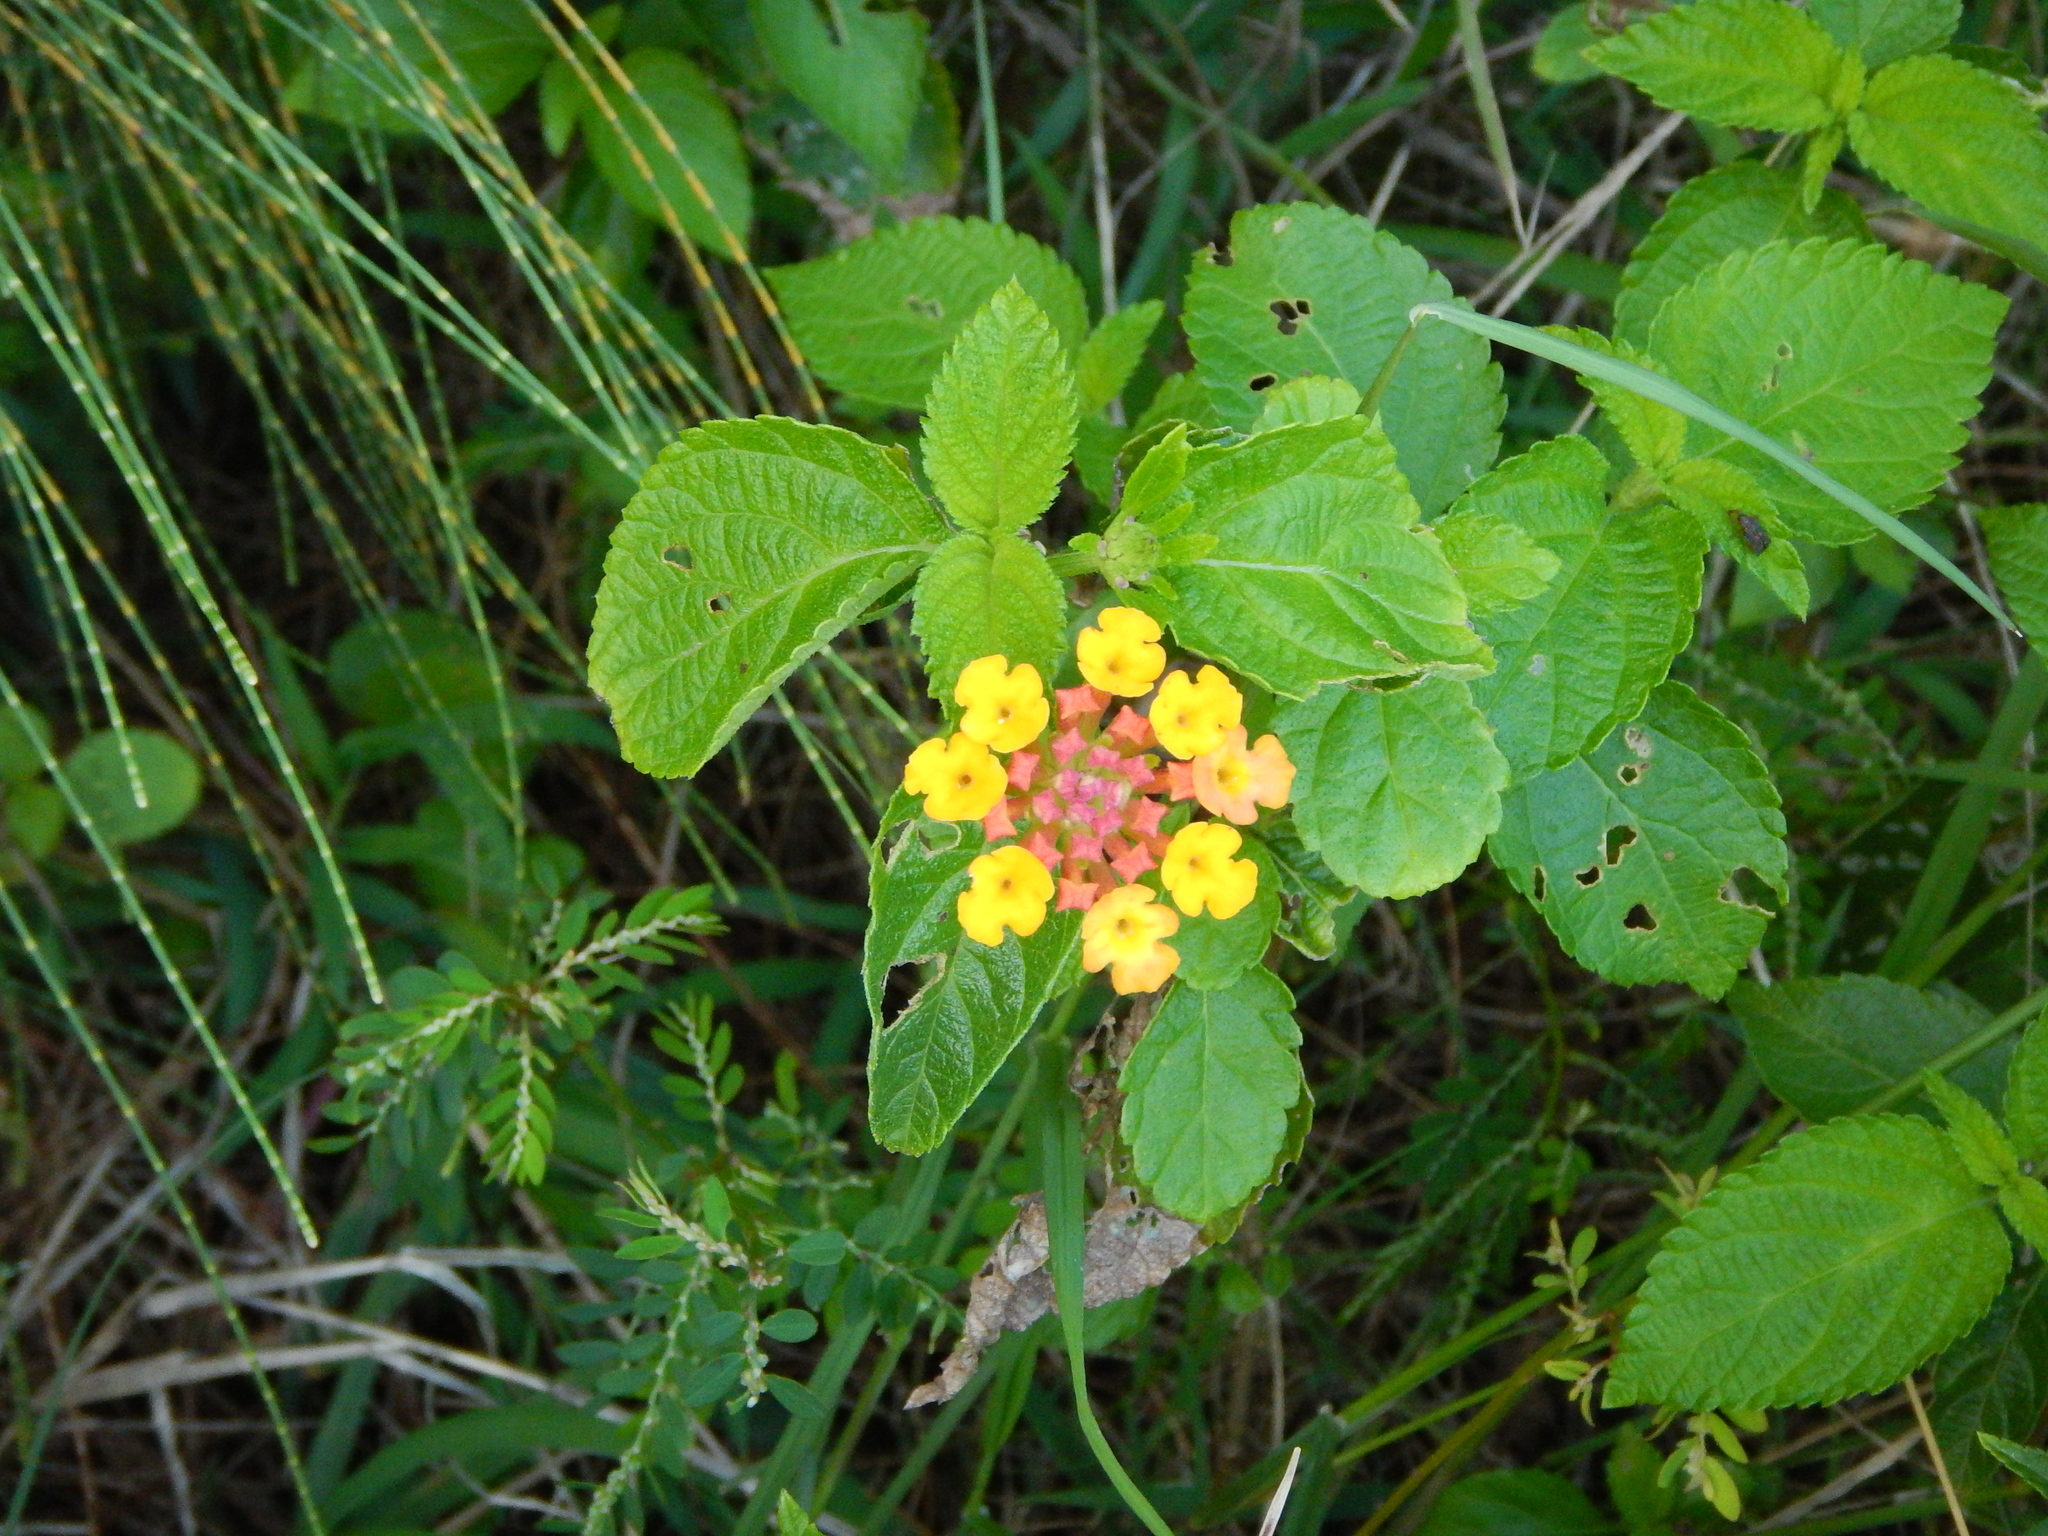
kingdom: Plantae
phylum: Tracheophyta
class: Magnoliopsida
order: Lamiales
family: Verbenaceae
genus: Lantana
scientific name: Lantana camara
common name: Lantana
